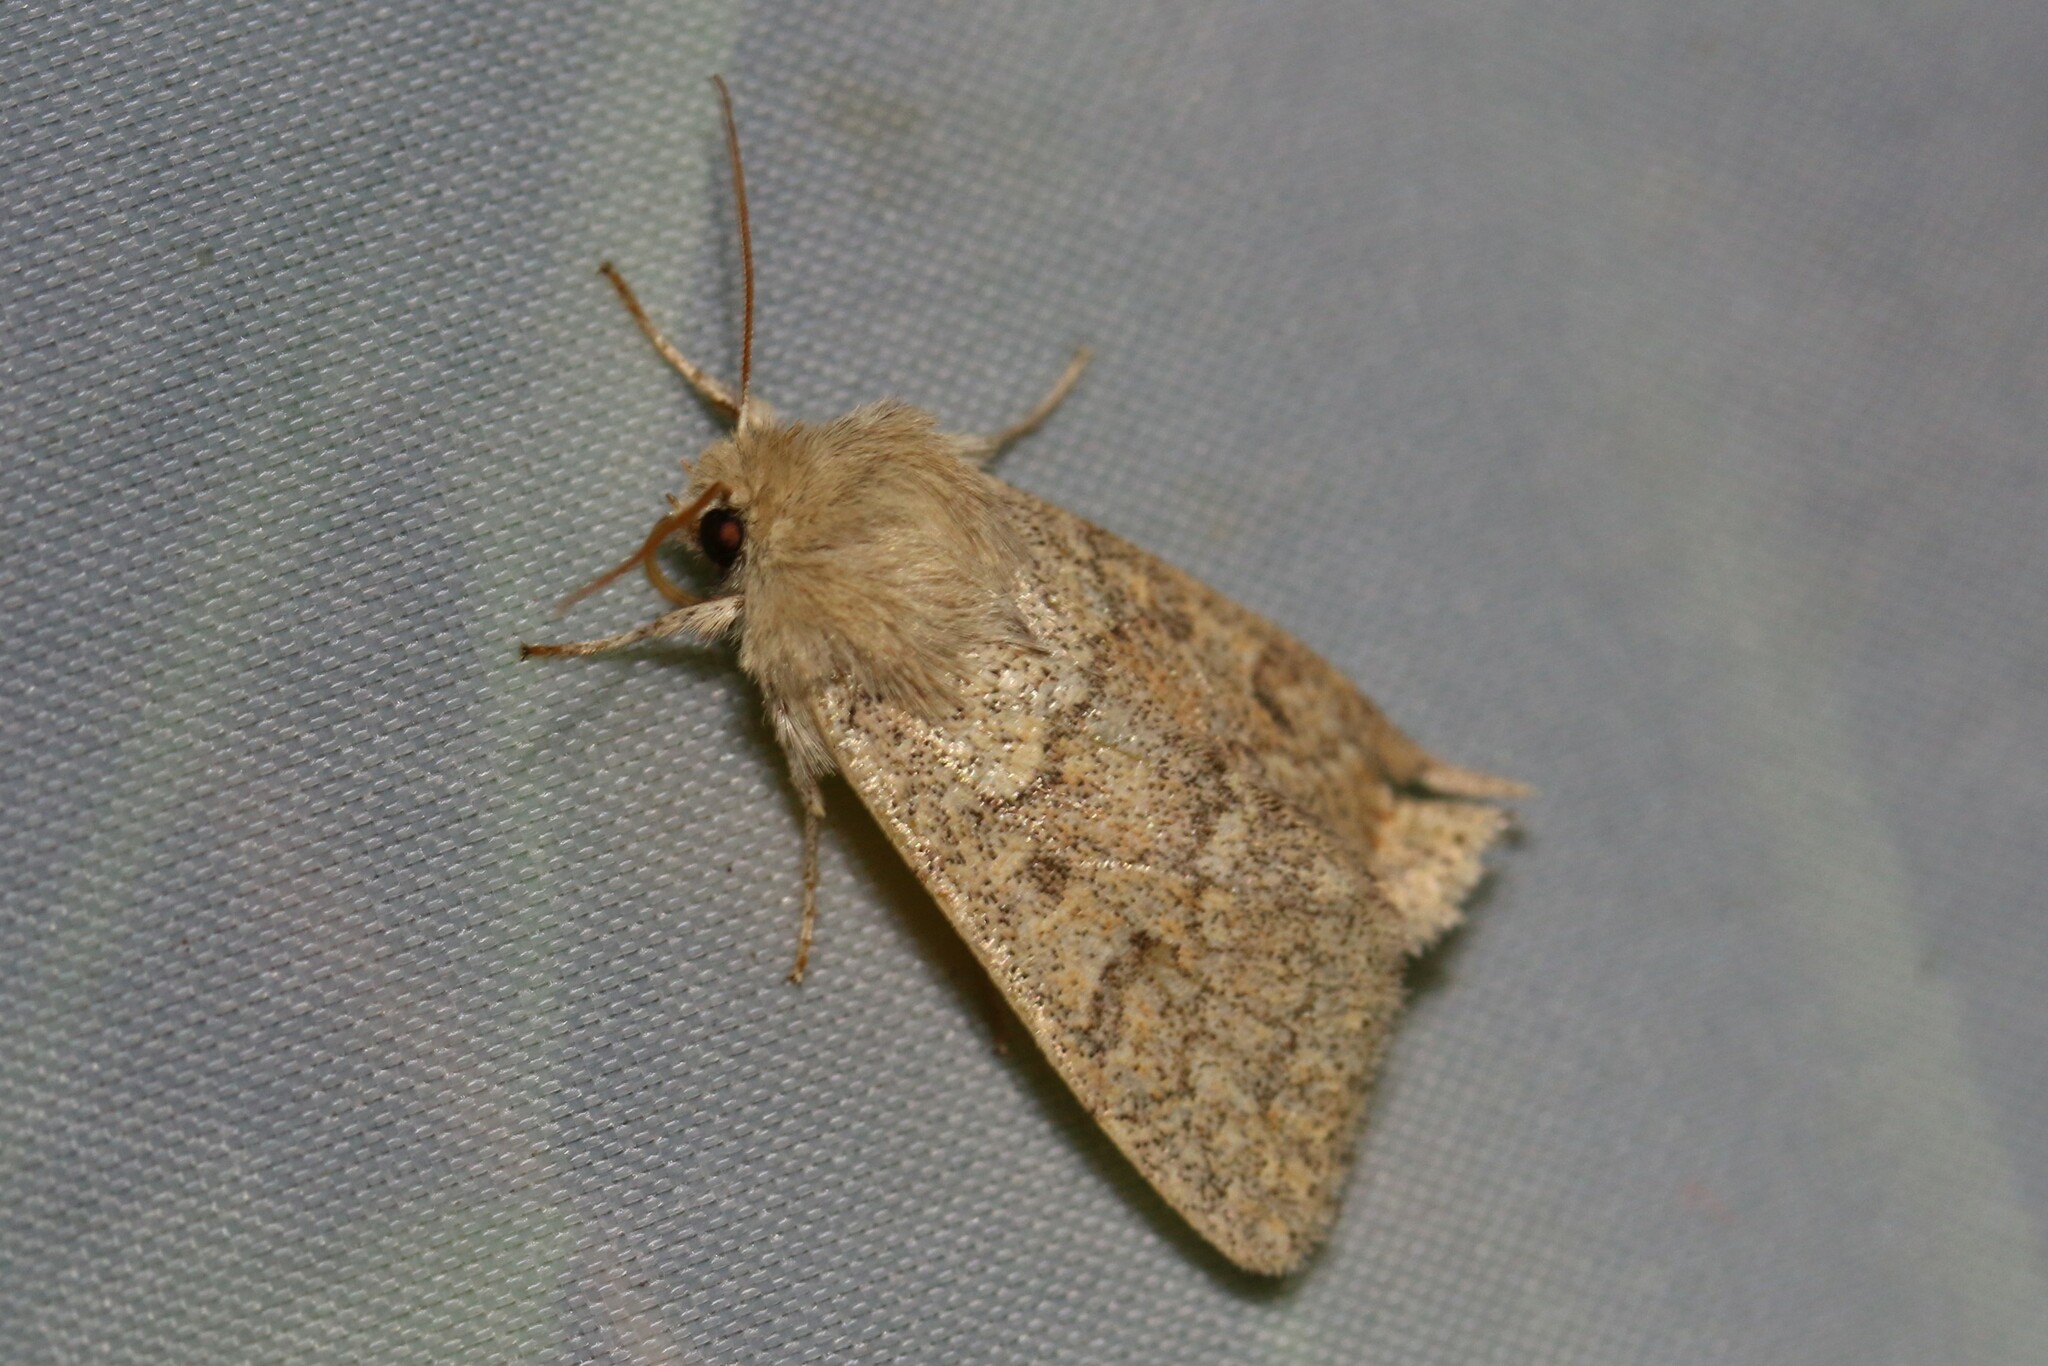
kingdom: Animalia
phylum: Arthropoda
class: Insecta
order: Lepidoptera
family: Noctuidae
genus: Orthosia
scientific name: Orthosia miniosa
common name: Blossom underwing
